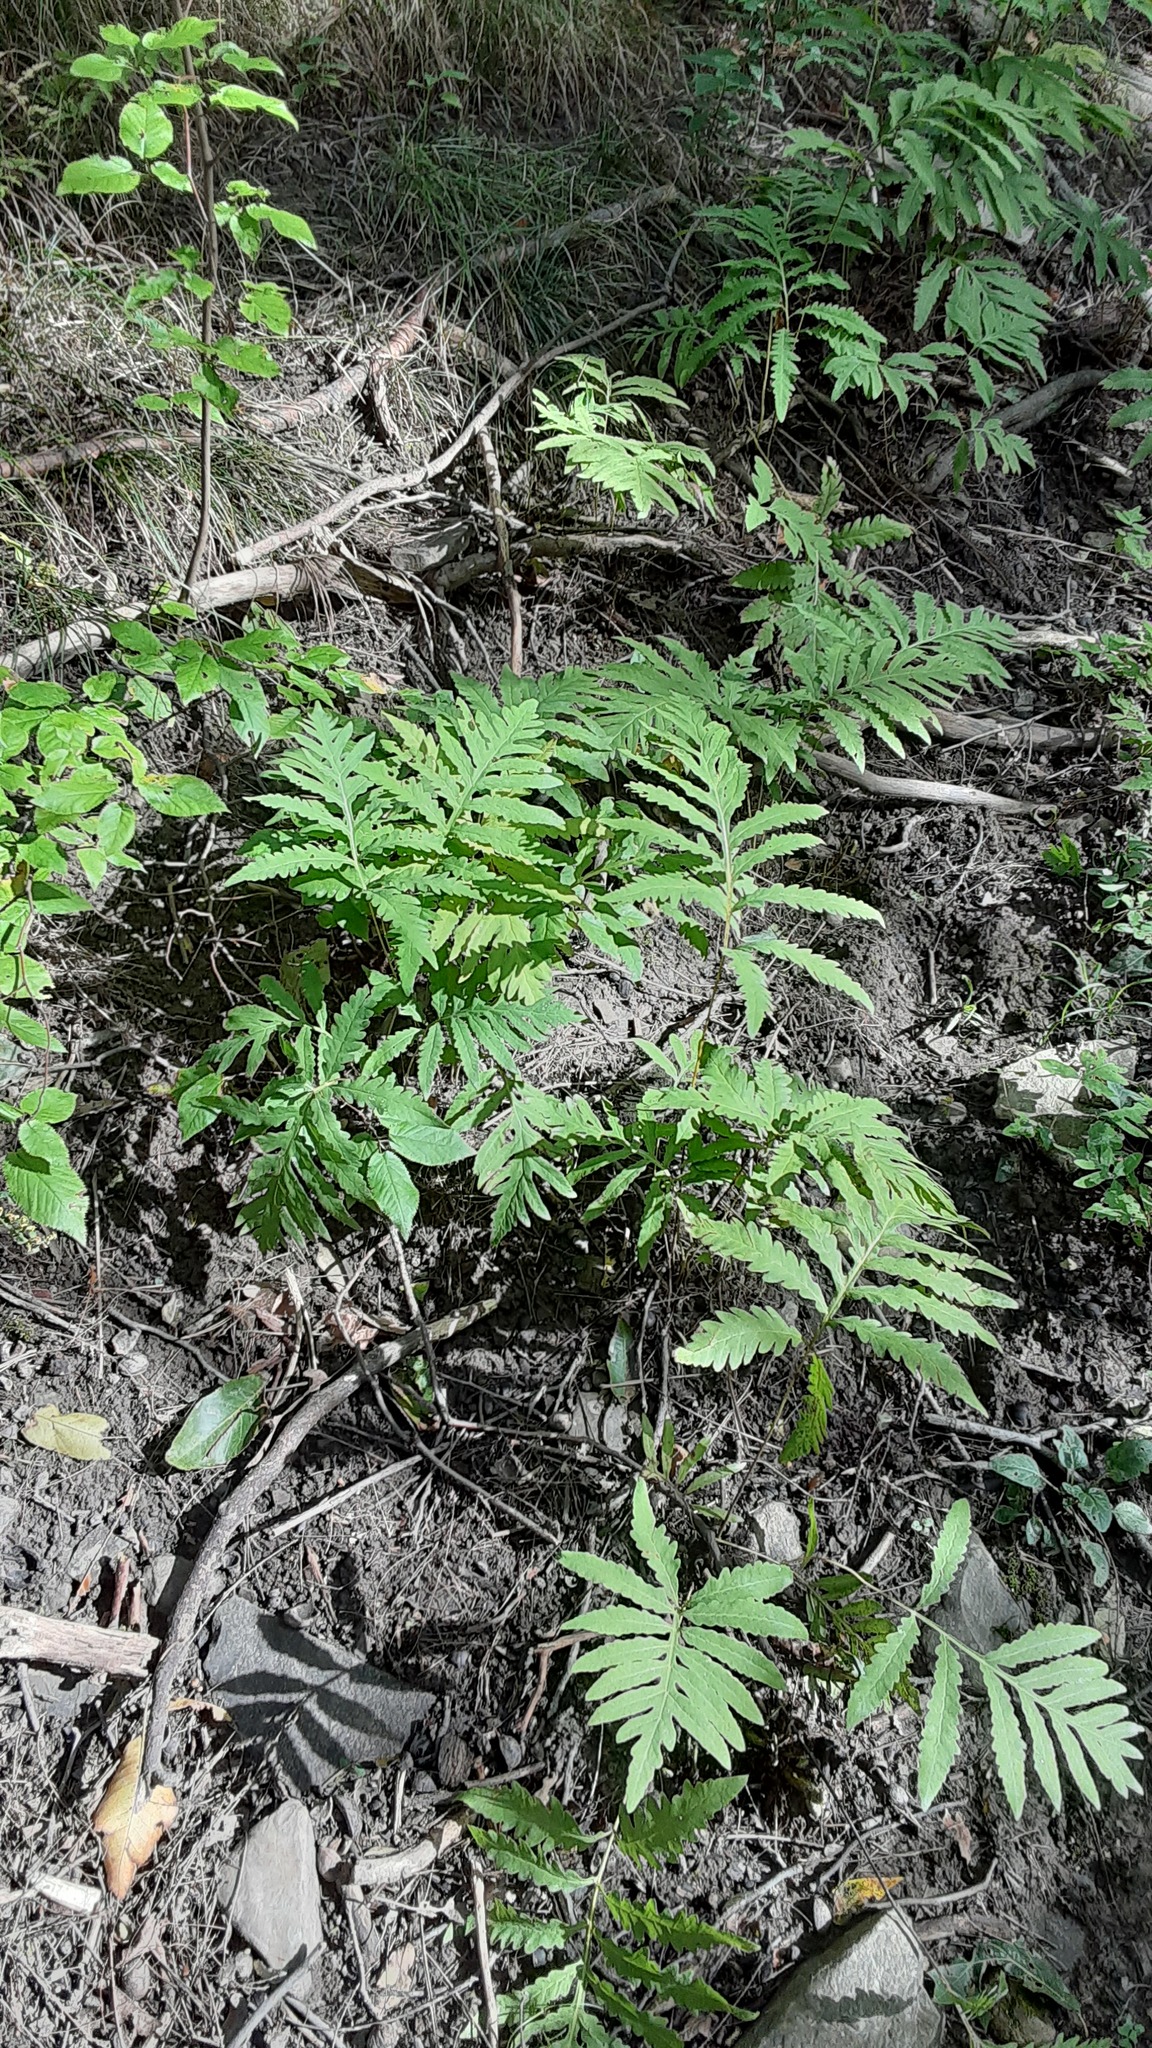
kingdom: Plantae
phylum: Tracheophyta
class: Polypodiopsida
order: Polypodiales
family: Onocleaceae
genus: Onoclea
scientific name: Onoclea sensibilis
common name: Sensitive fern
